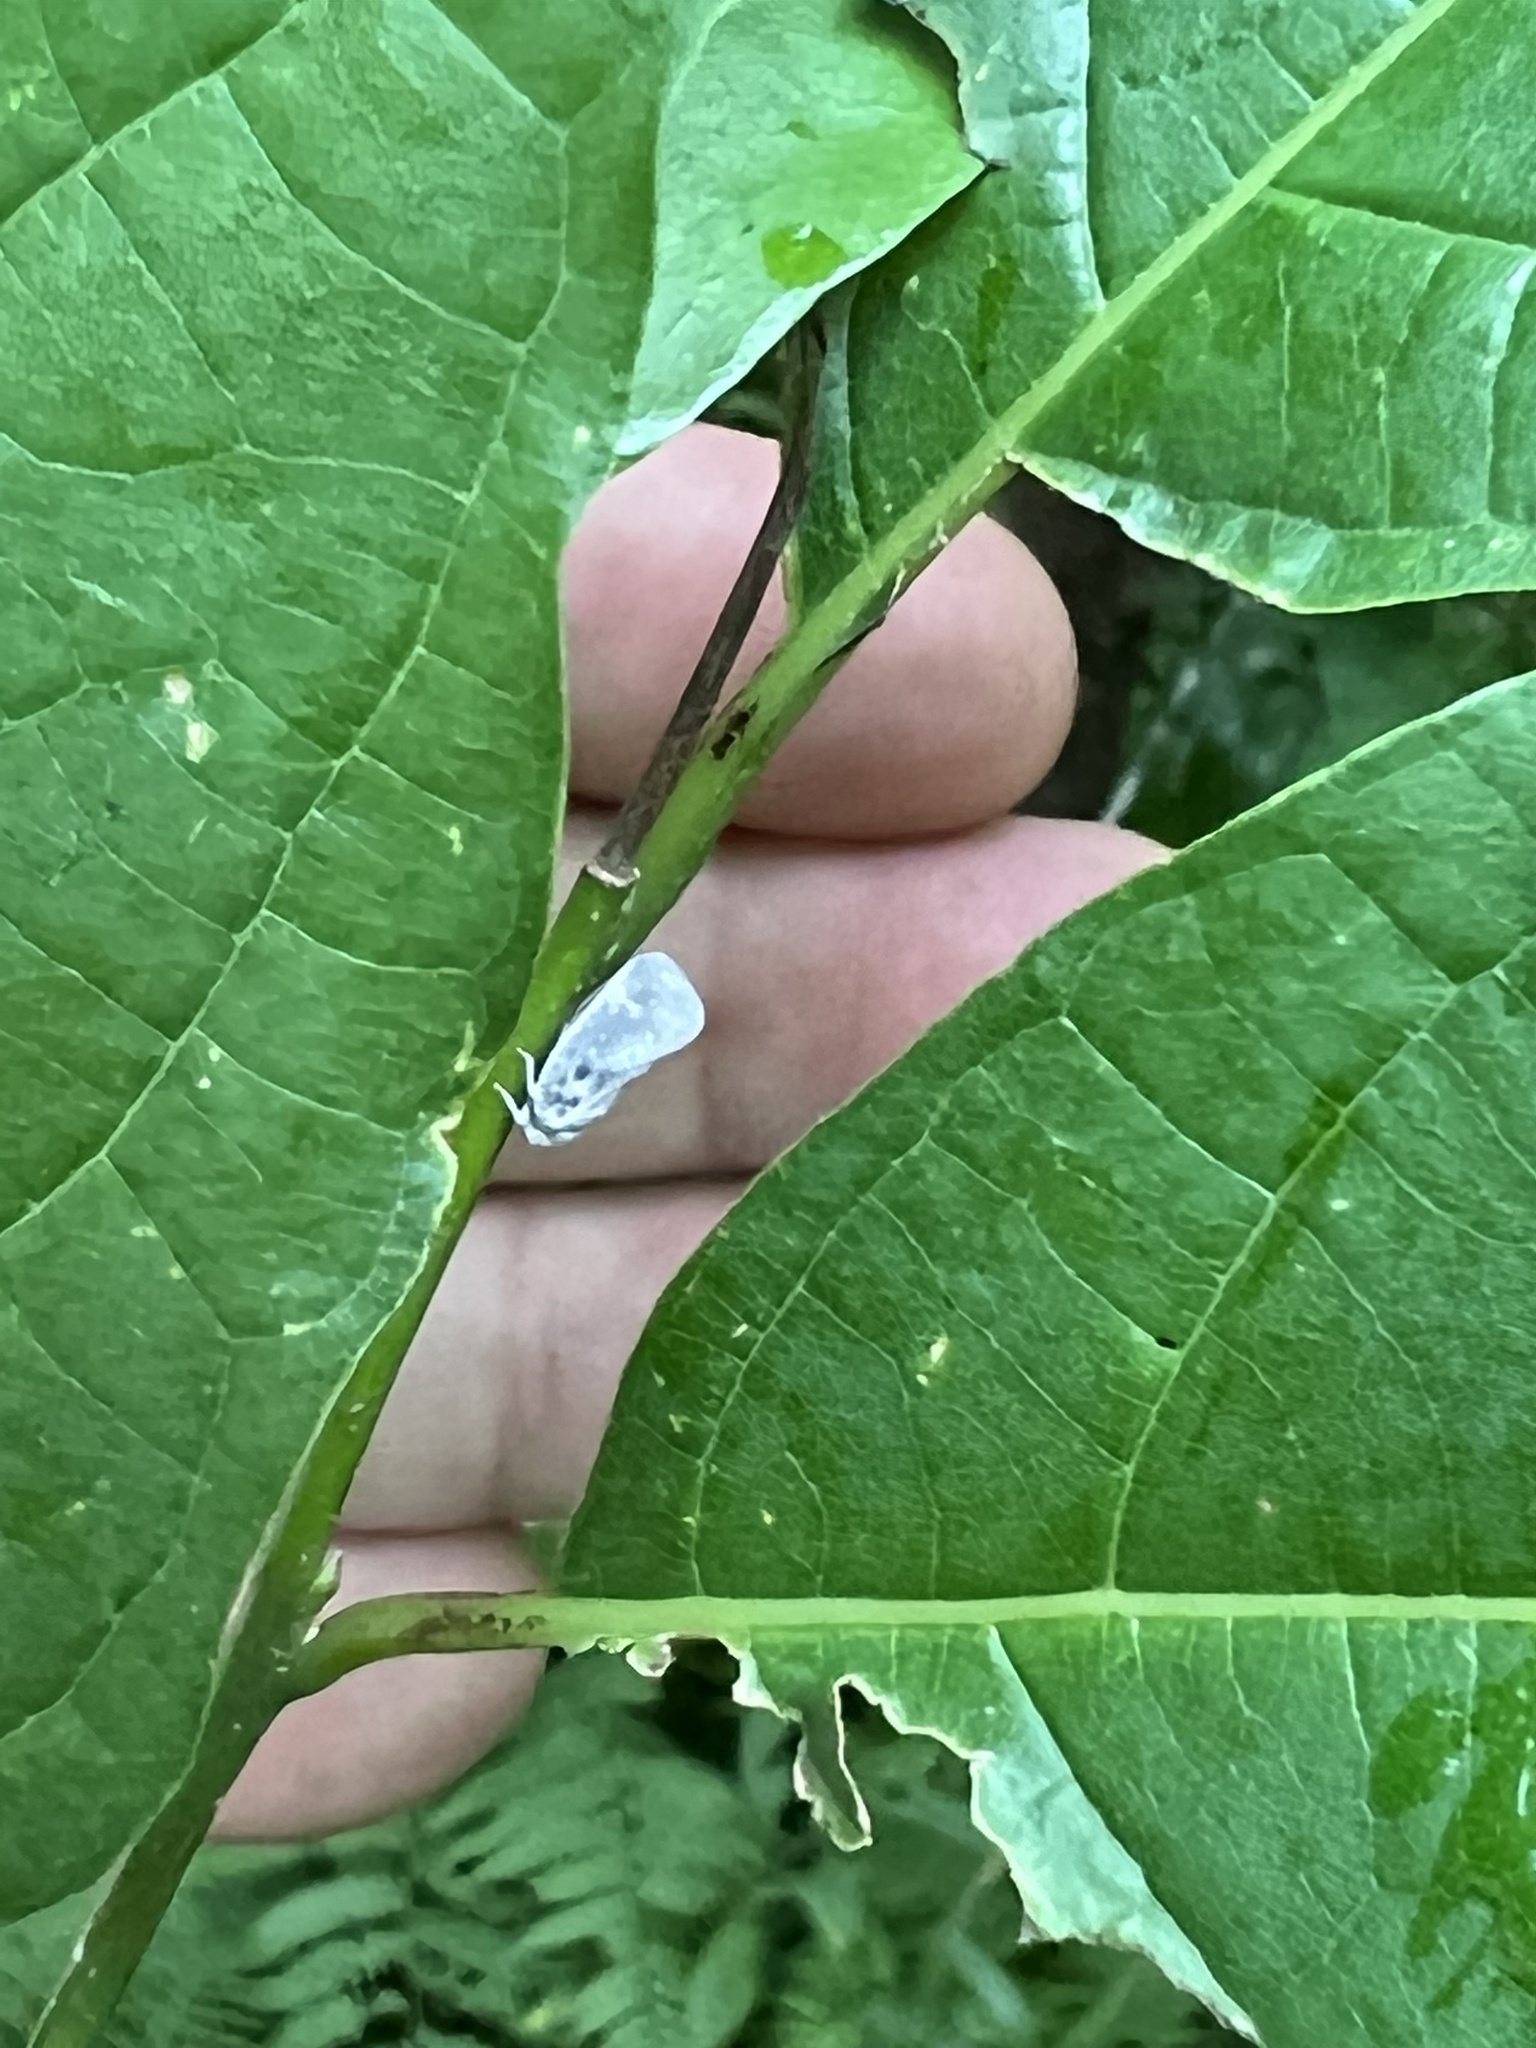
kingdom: Animalia
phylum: Arthropoda
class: Insecta
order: Hemiptera
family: Flatidae
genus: Metcalfa
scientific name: Metcalfa pruinosa
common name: Citrus flatid planthopper
